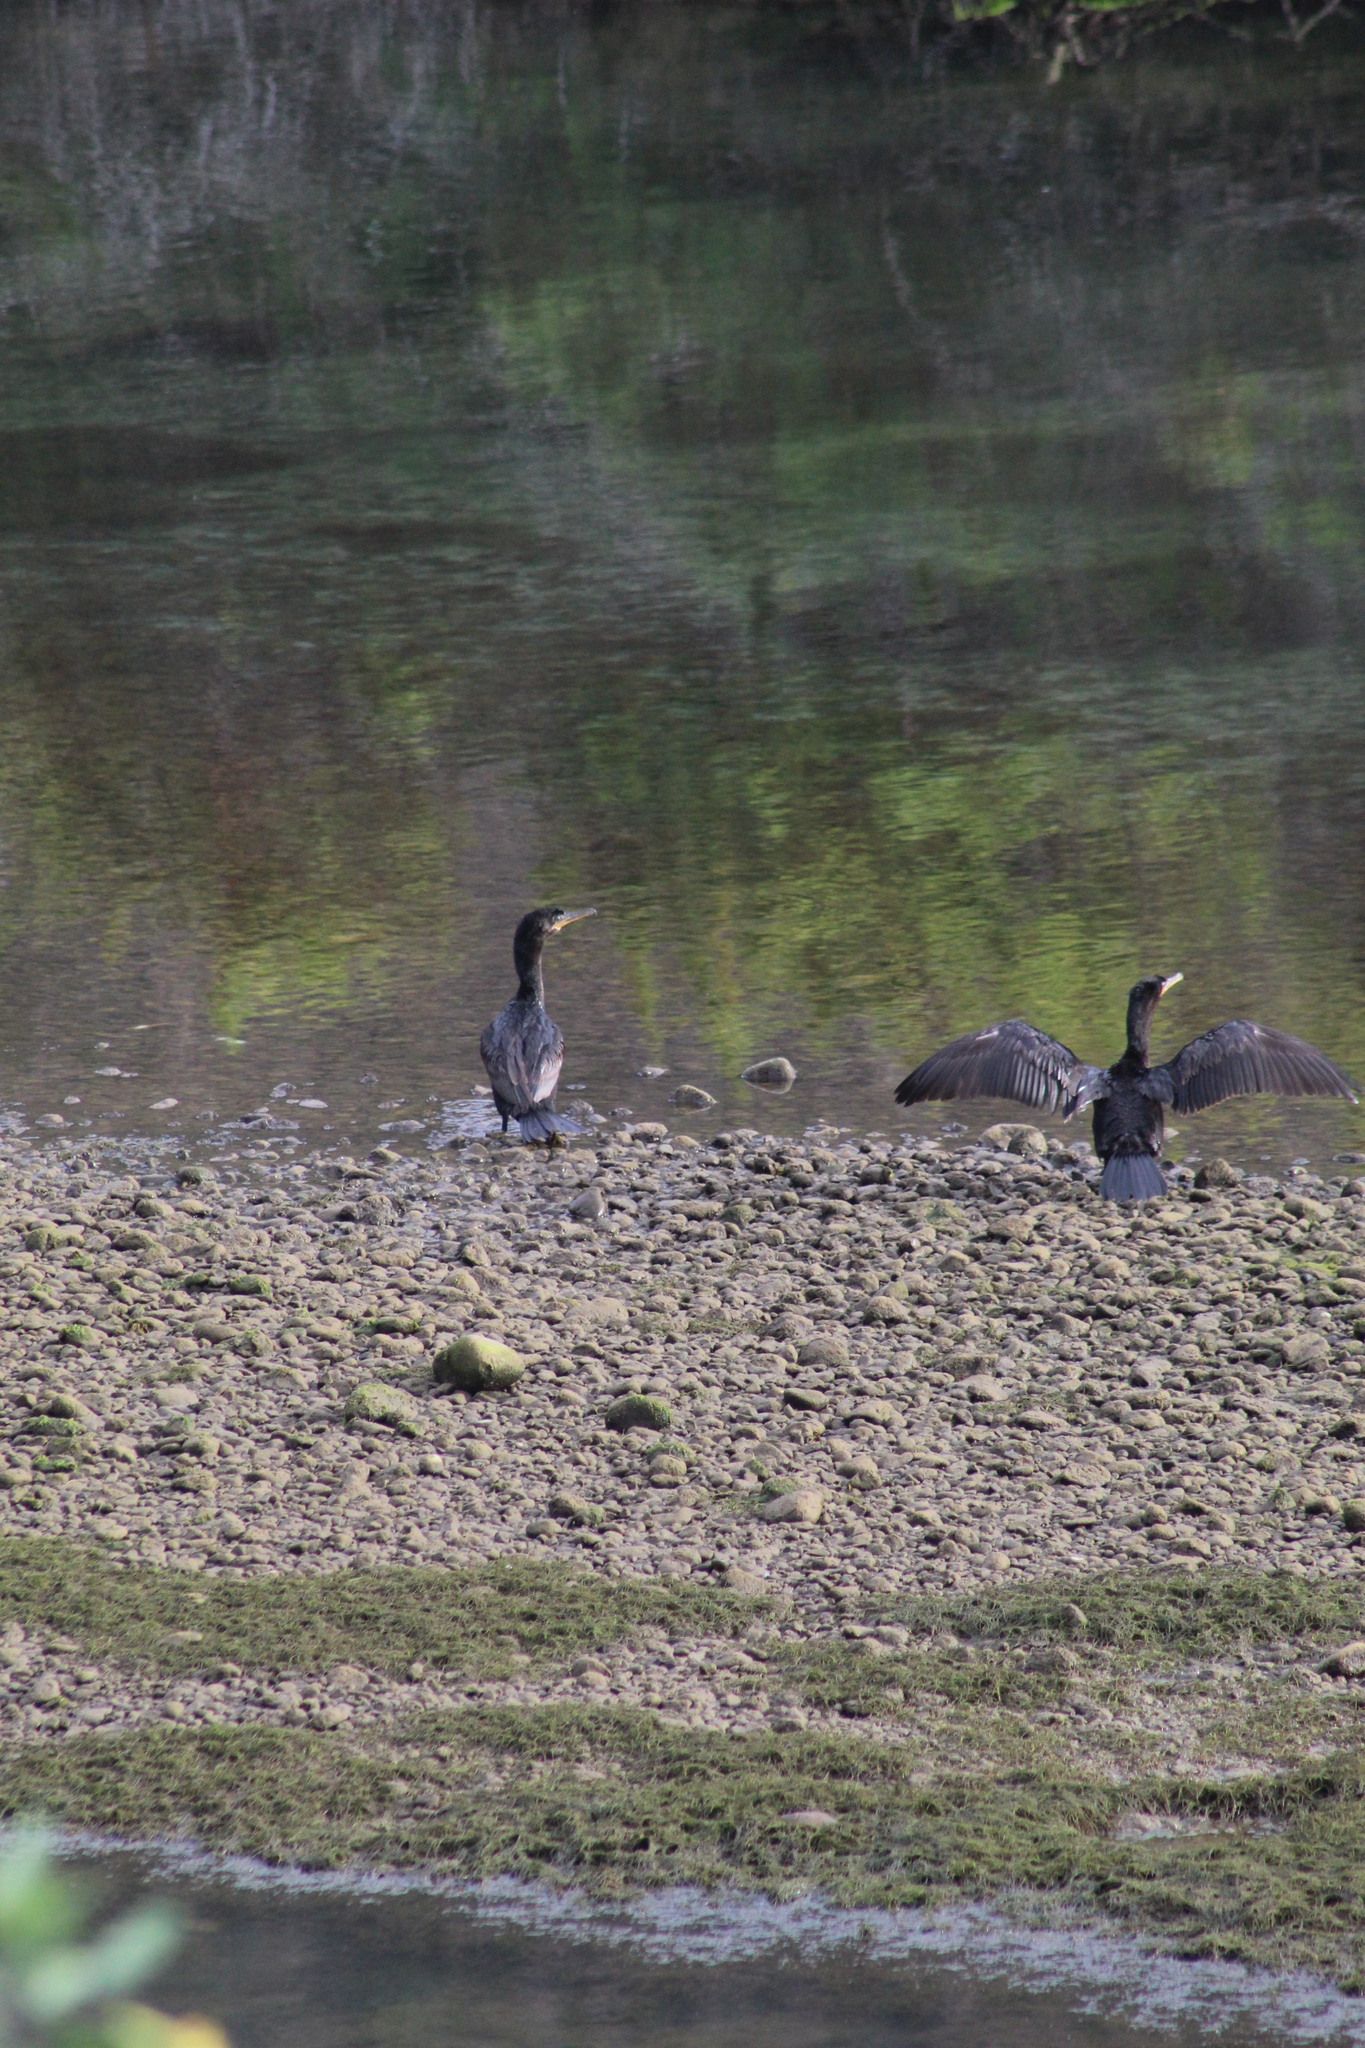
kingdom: Animalia
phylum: Chordata
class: Aves
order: Suliformes
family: Phalacrocoracidae
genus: Phalacrocorax
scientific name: Phalacrocorax brasilianus
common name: Neotropic cormorant
